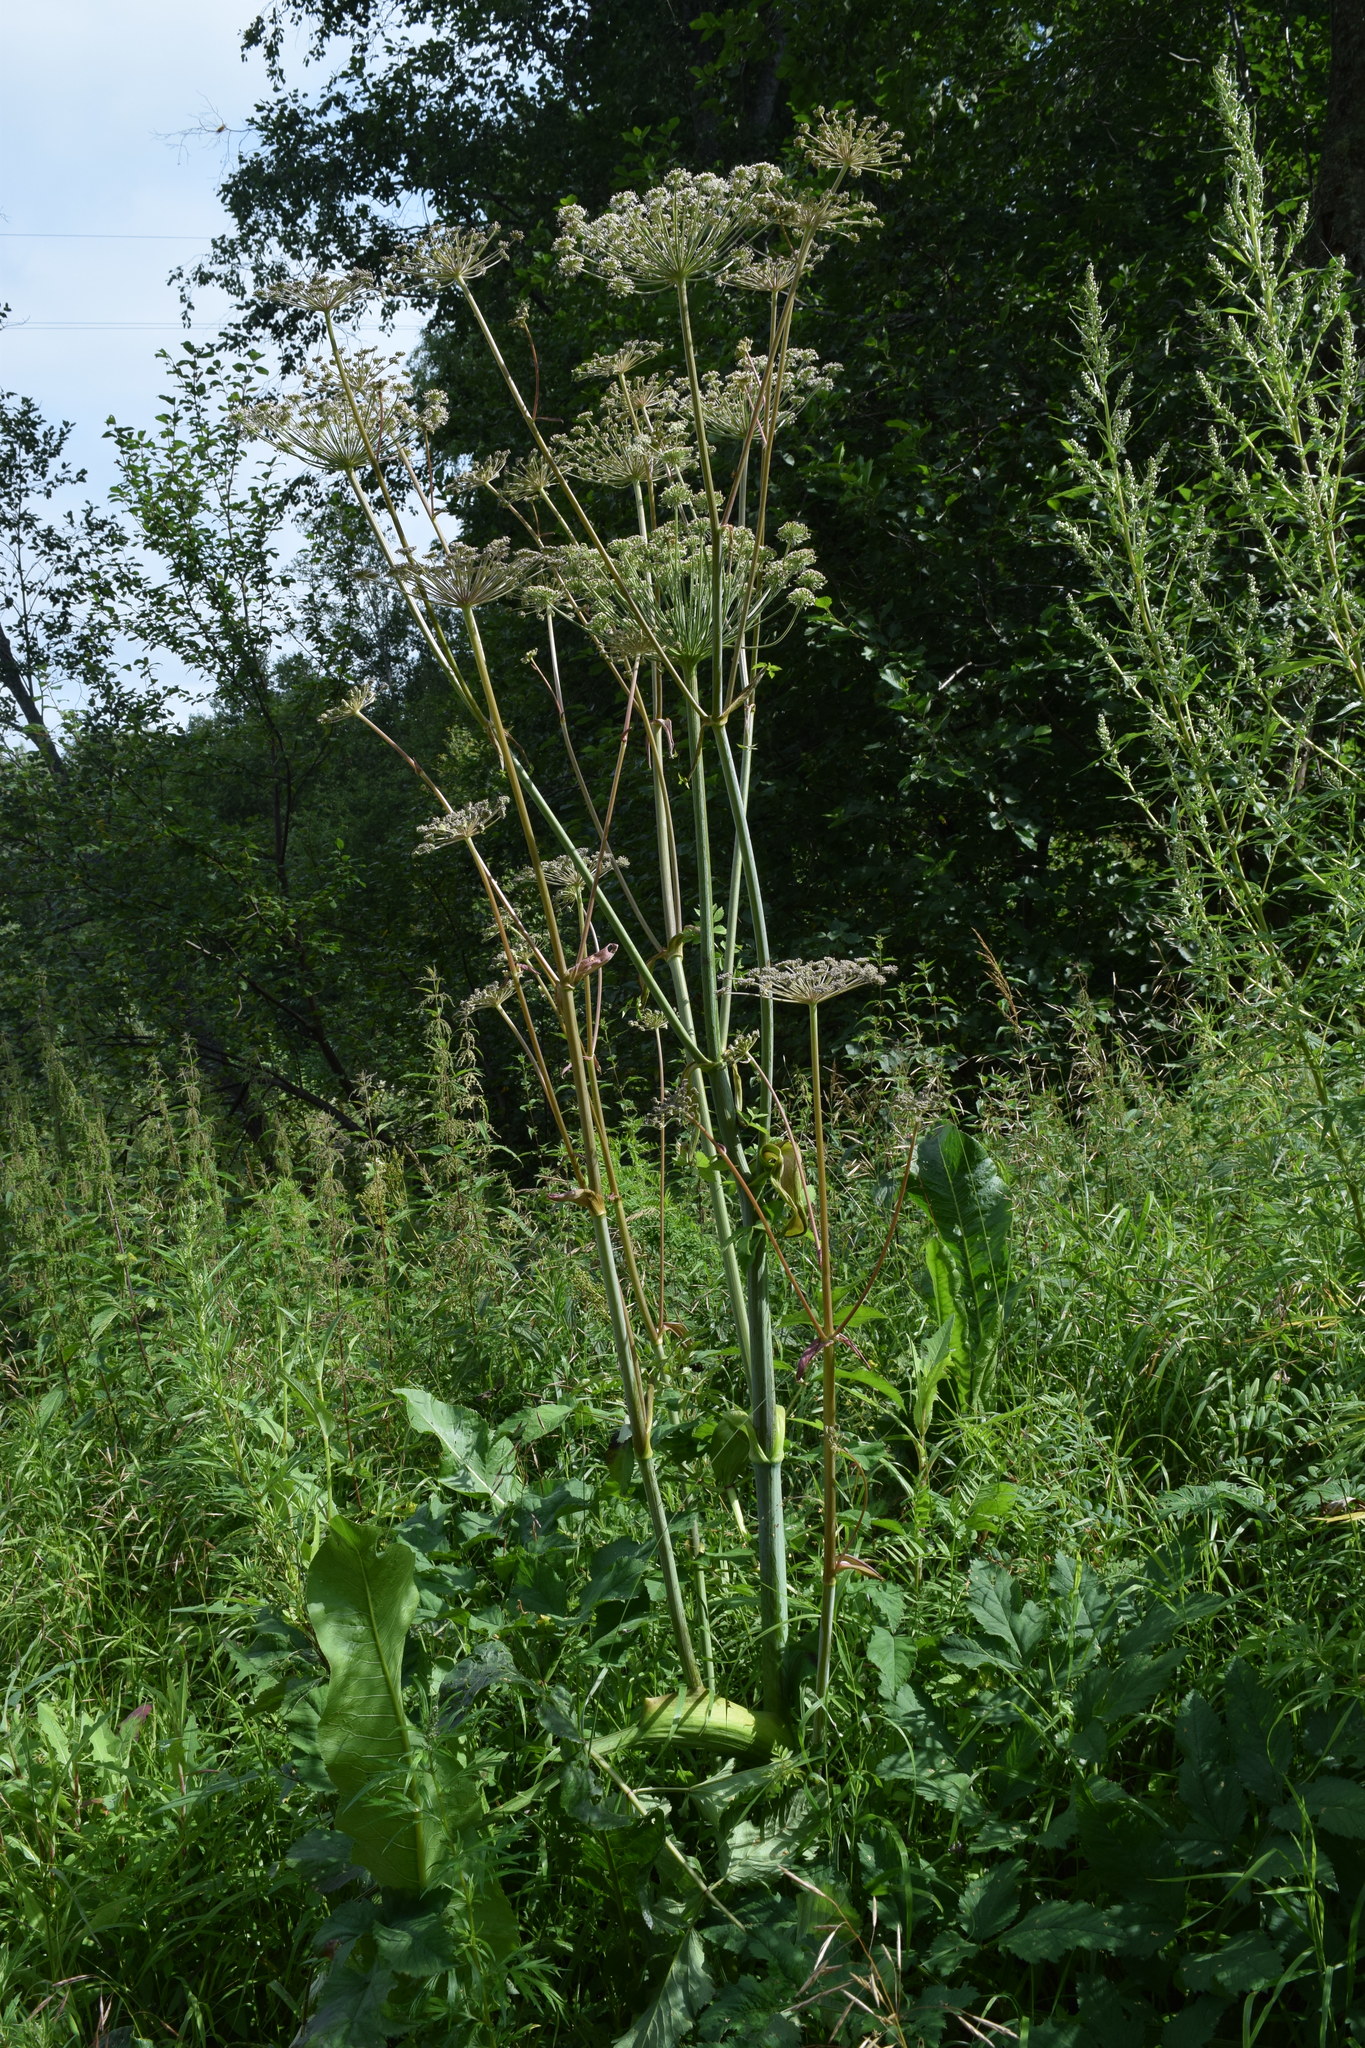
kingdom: Plantae
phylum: Tracheophyta
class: Magnoliopsida
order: Apiales
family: Apiaceae
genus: Angelica
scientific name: Angelica sylvestris
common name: Wild angelica
